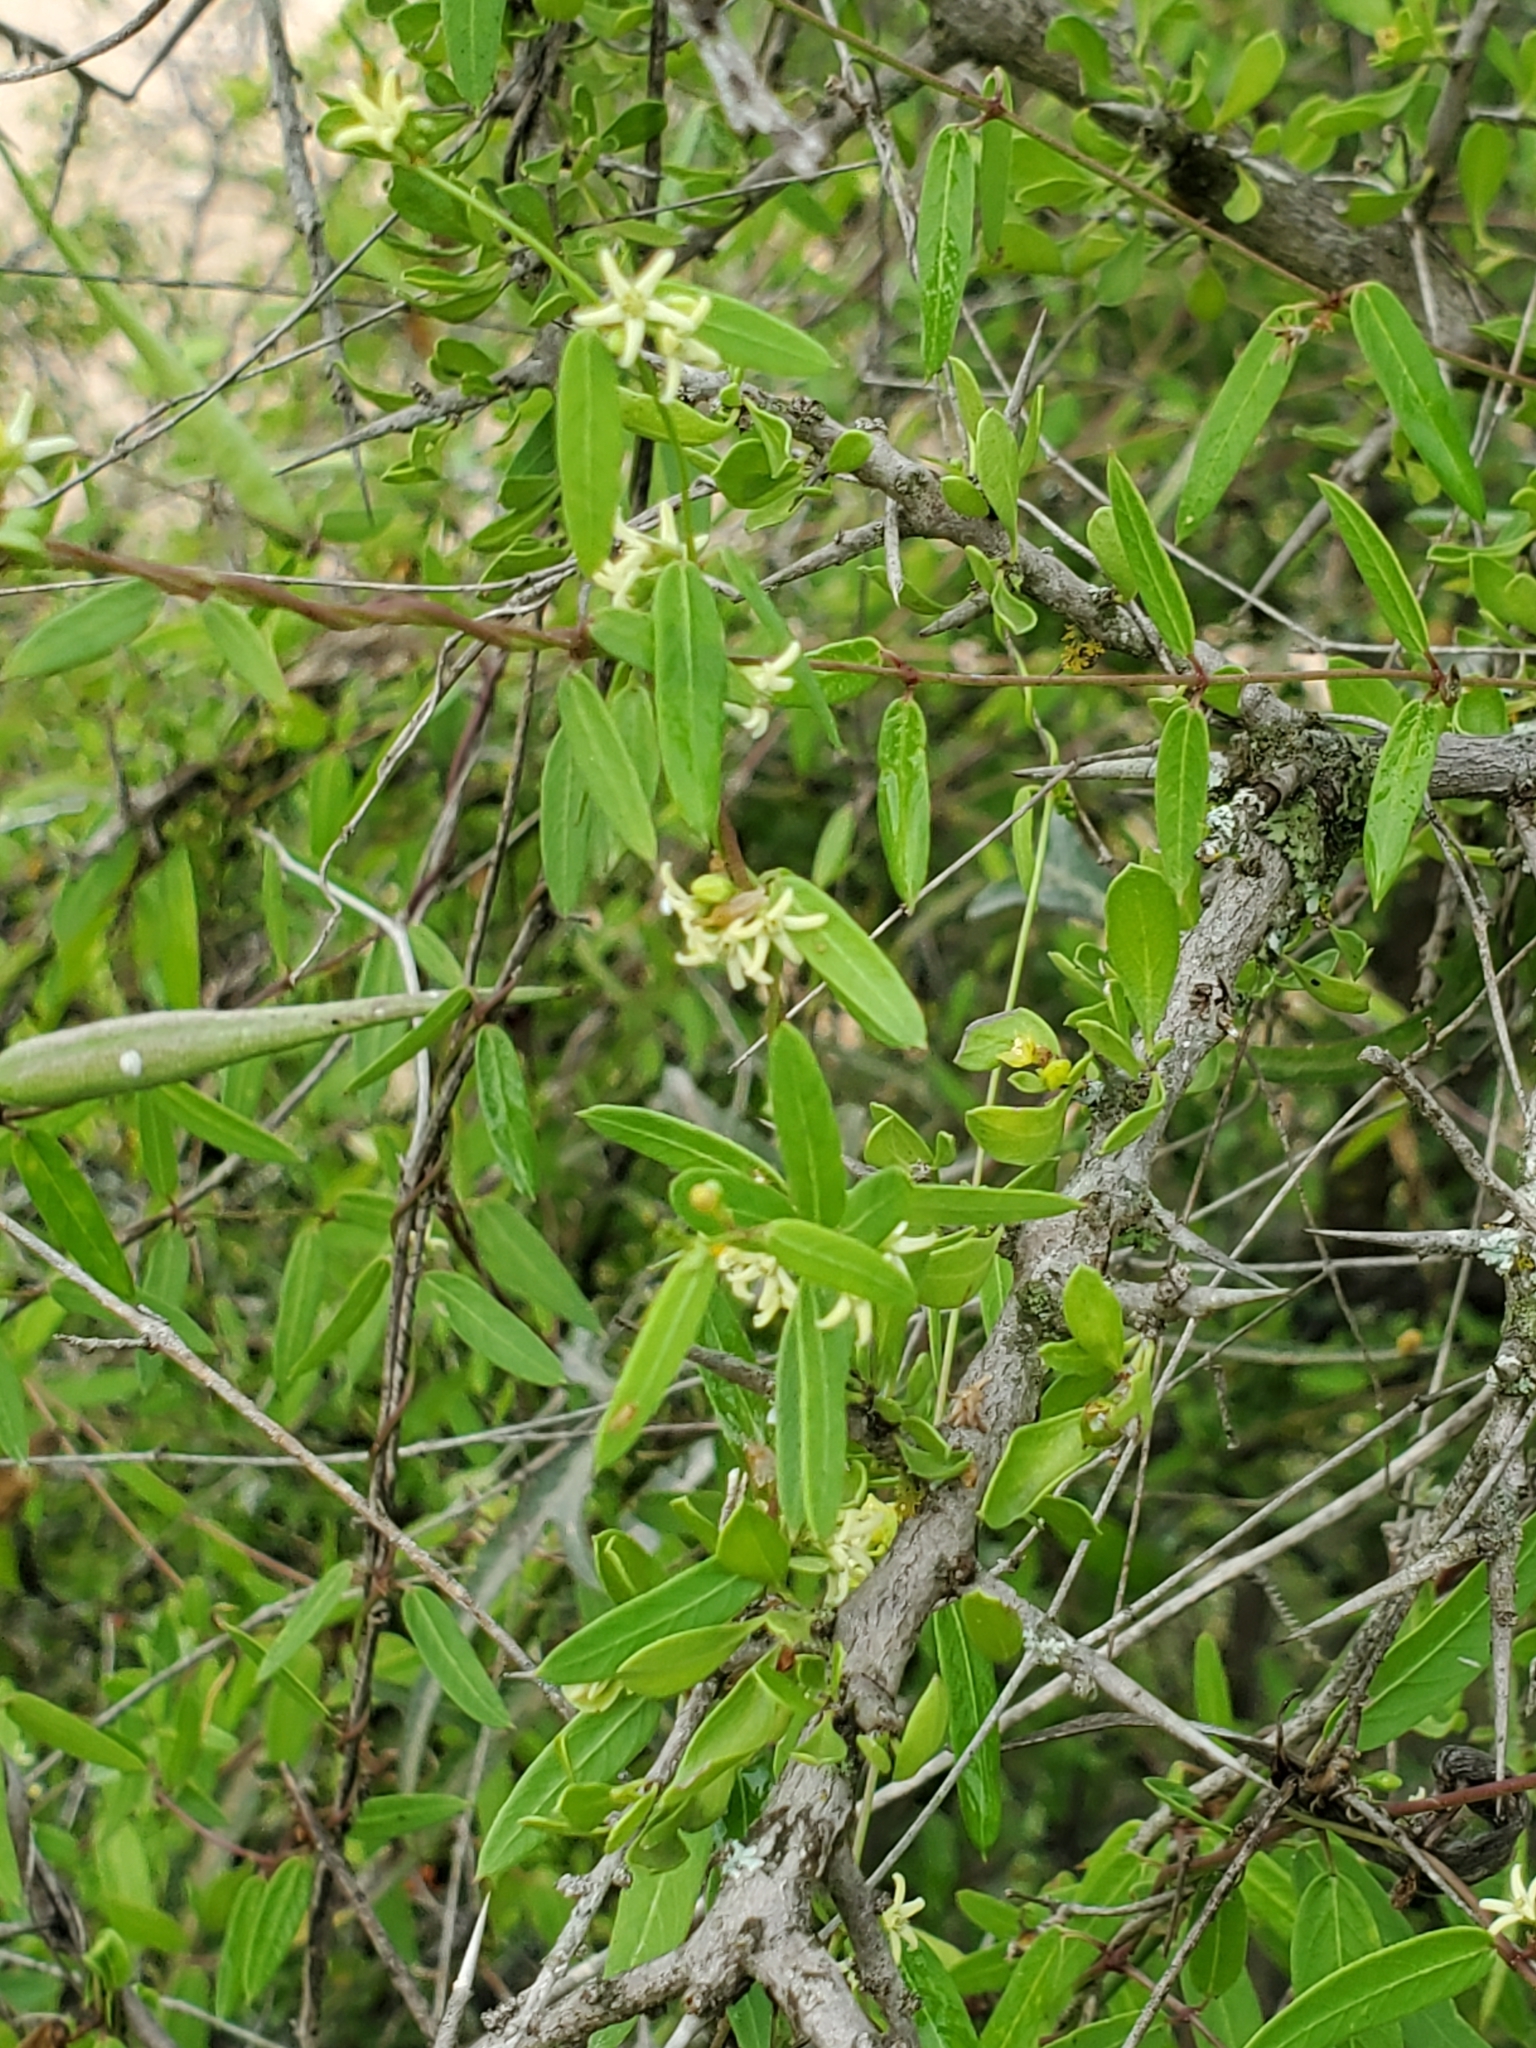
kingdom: Plantae
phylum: Tracheophyta
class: Magnoliopsida
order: Gentianales
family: Apocynaceae
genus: Metastelma
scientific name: Metastelma palmeri
